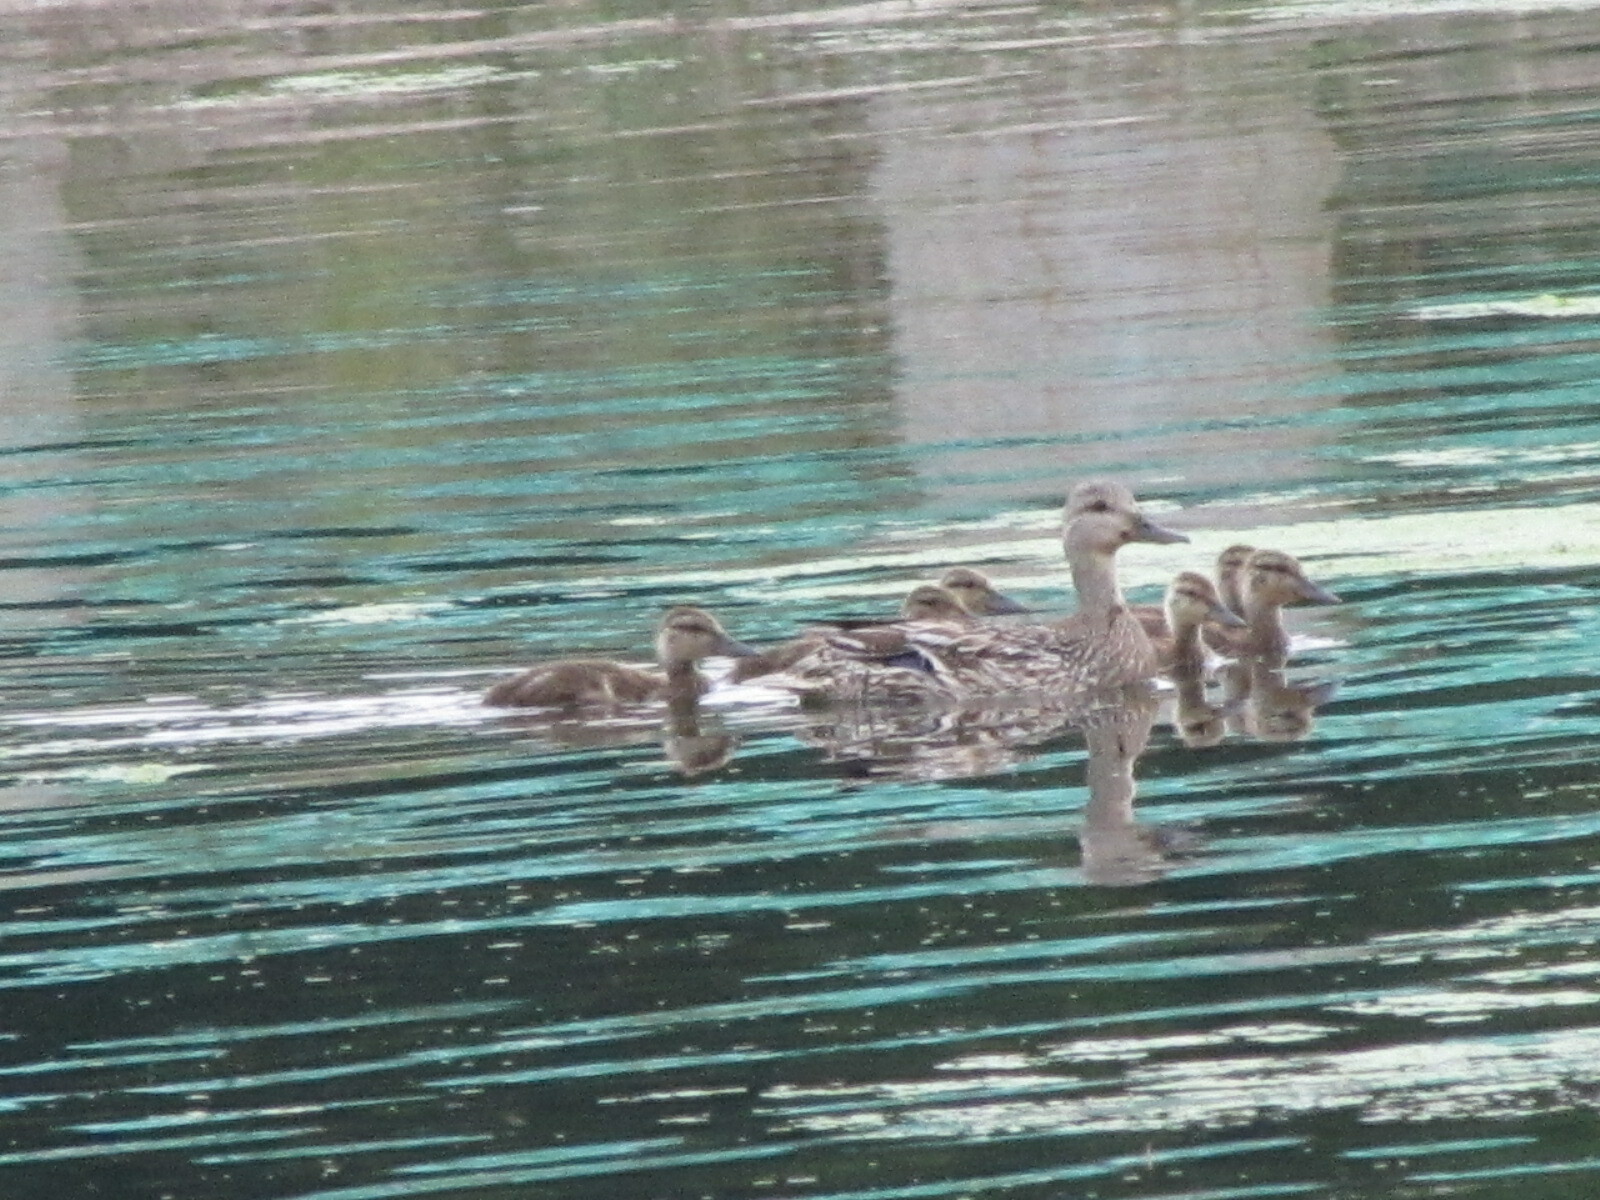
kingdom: Animalia
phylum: Chordata
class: Aves
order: Anseriformes
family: Anatidae
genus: Anas
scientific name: Anas platyrhynchos
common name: Mallard
